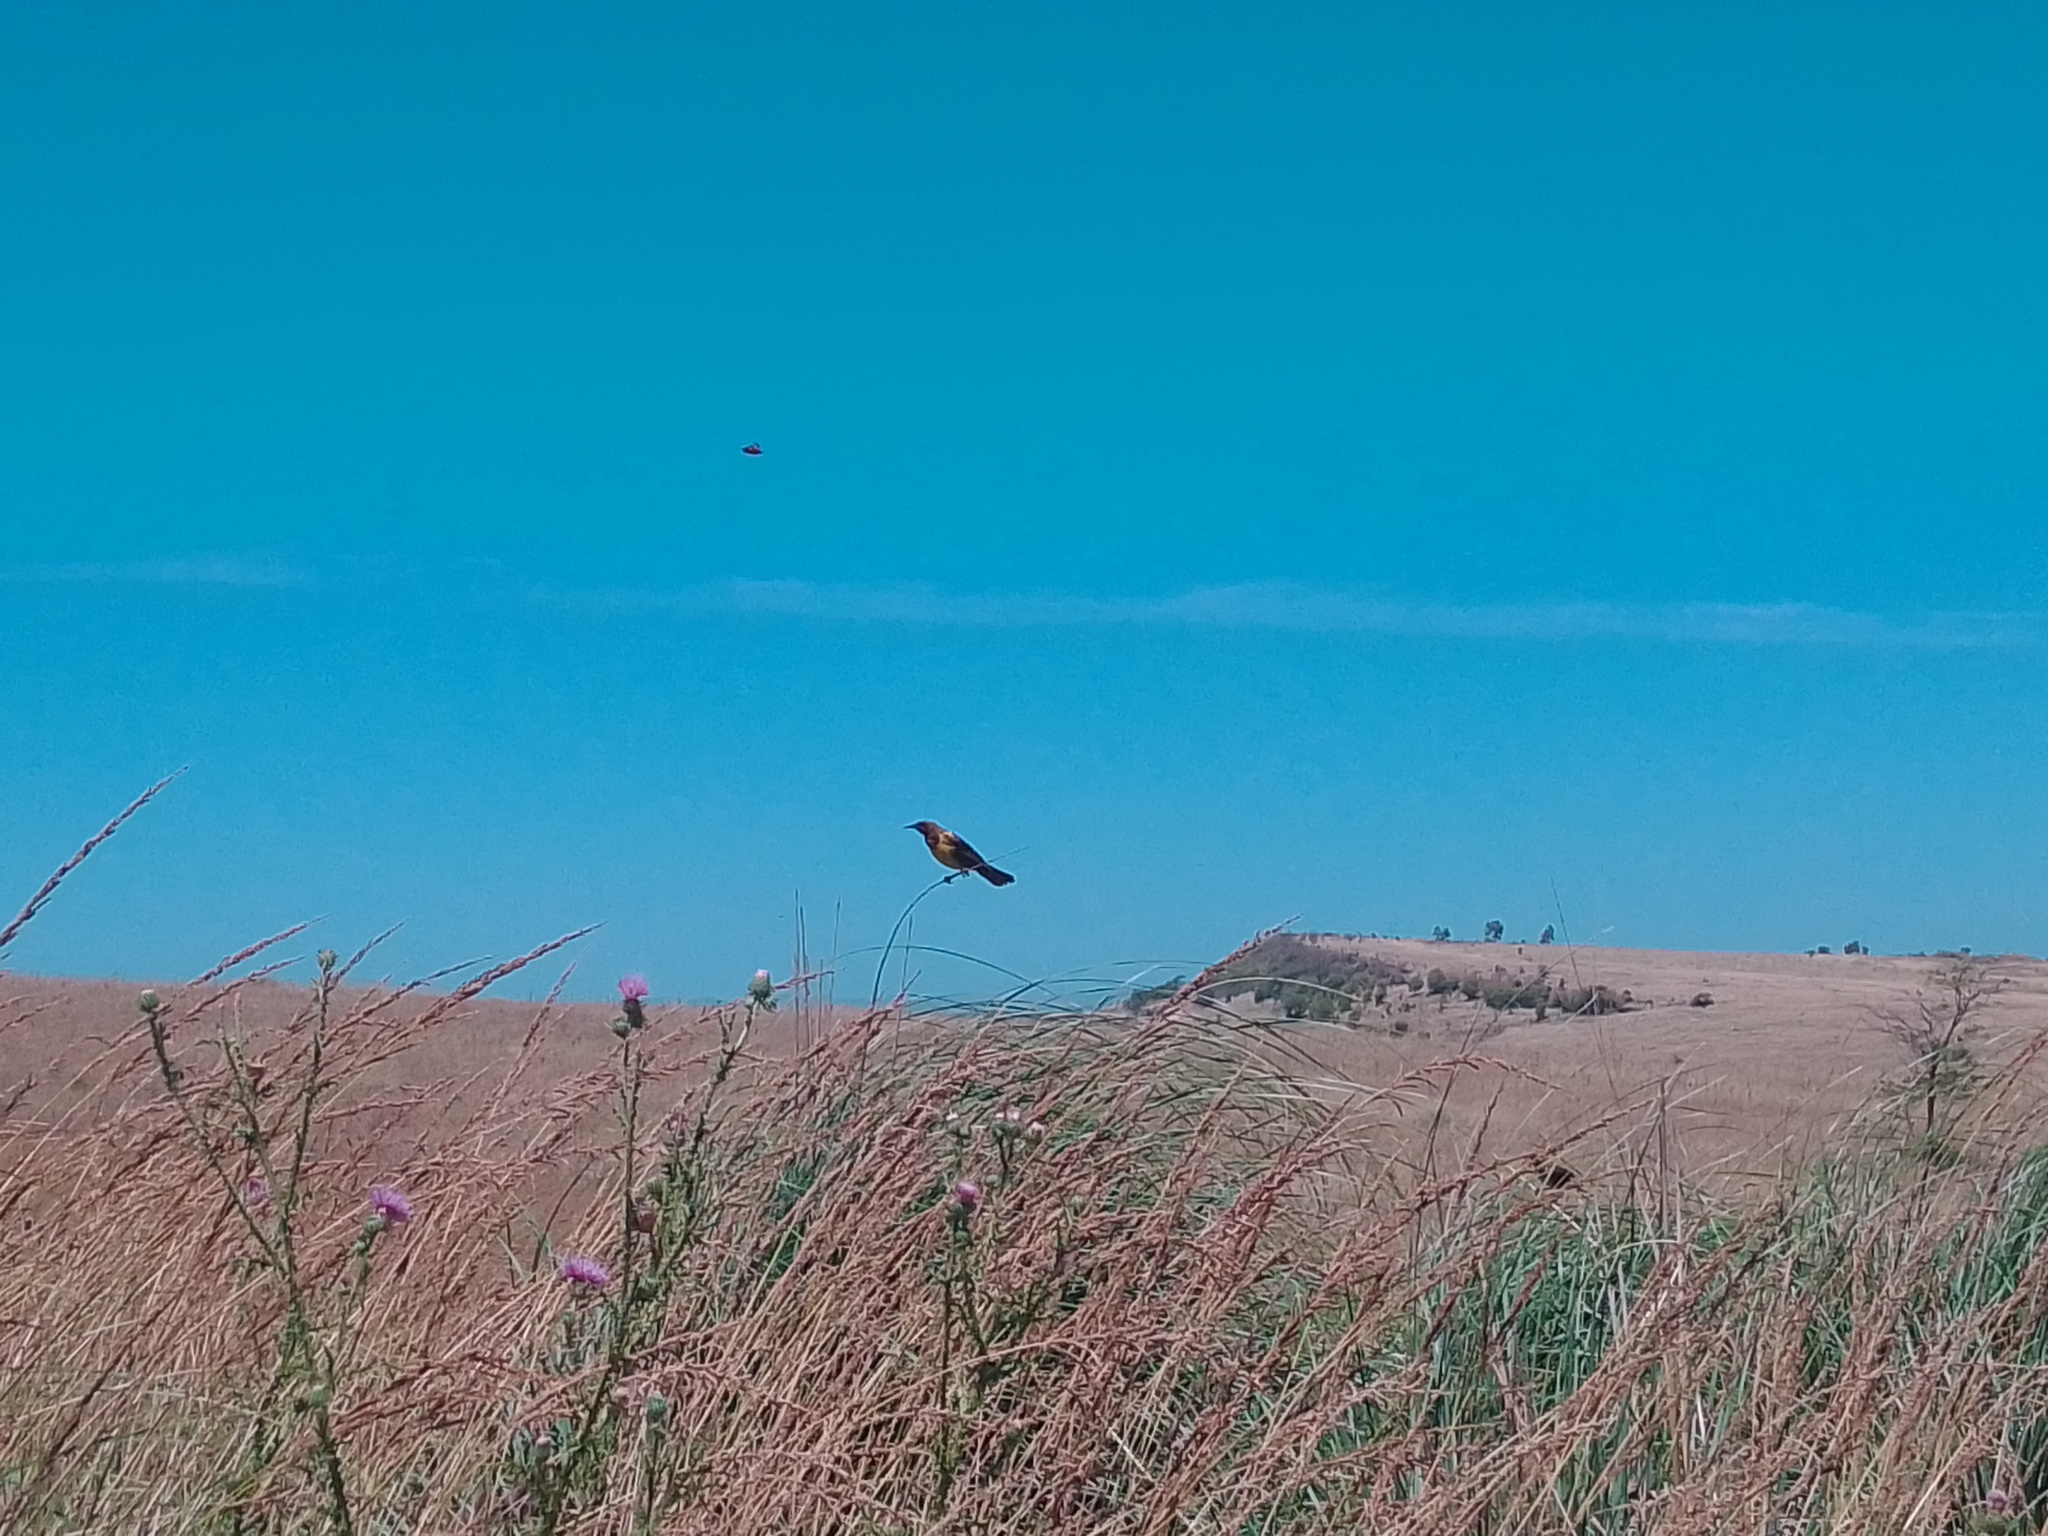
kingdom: Animalia
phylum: Chordata
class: Aves
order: Passeriformes
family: Icteridae
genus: Pseudoleistes
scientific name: Pseudoleistes virescens
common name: Brown-and-yellow marshbird
